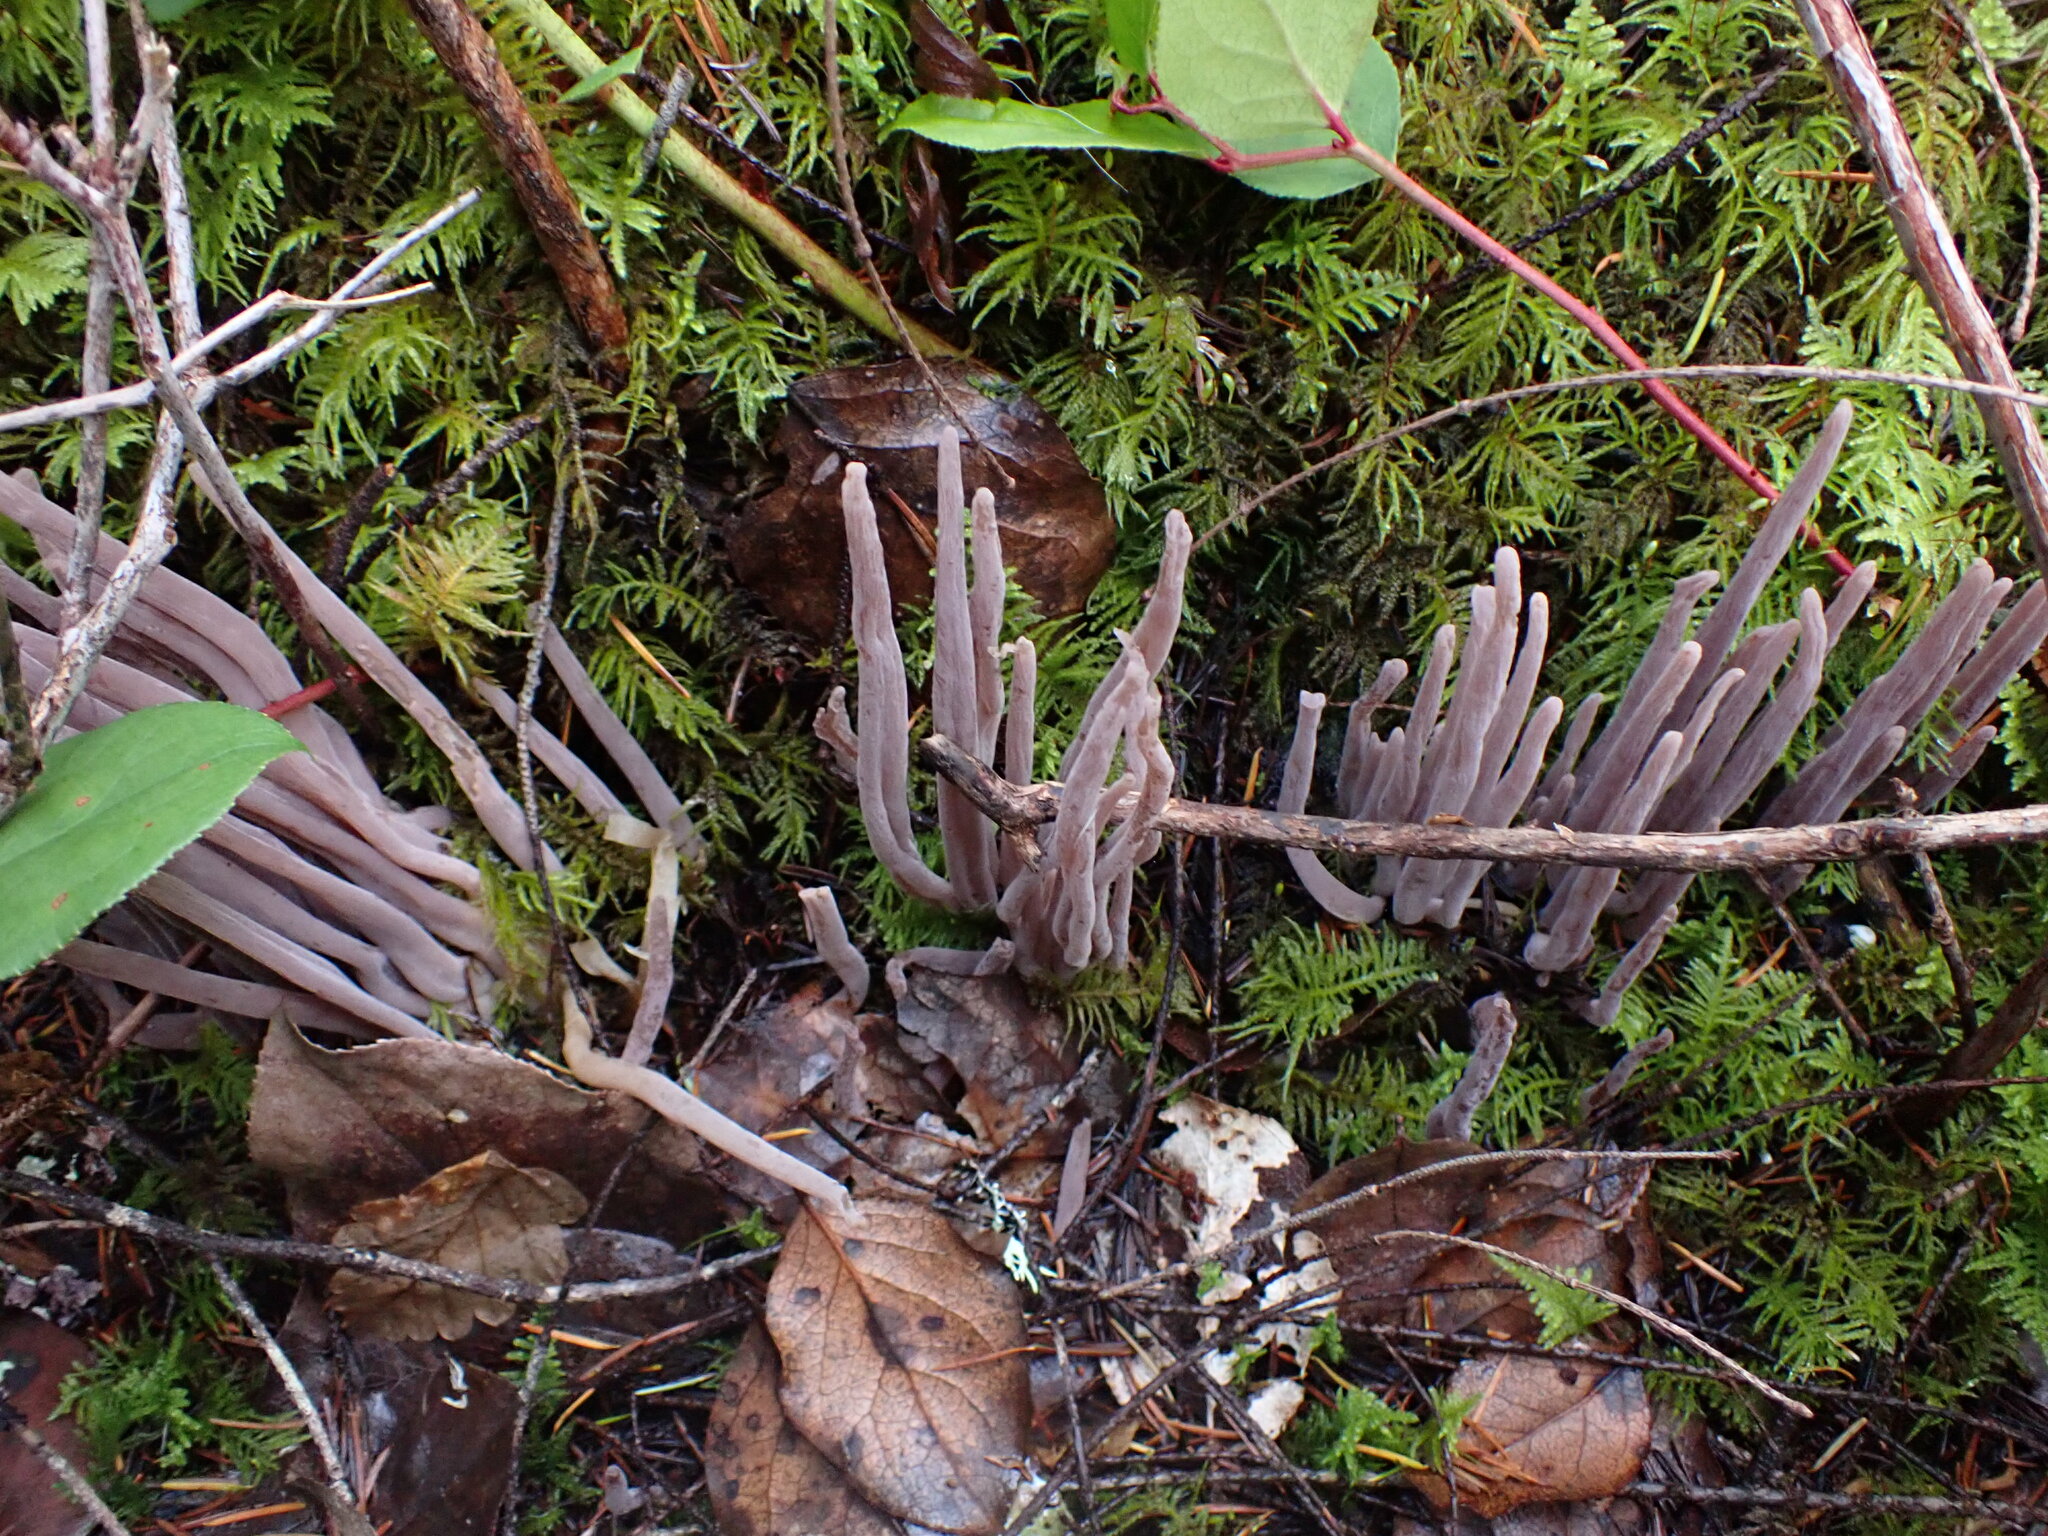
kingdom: Fungi
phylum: Basidiomycota
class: Agaricomycetes
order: Hymenochaetales
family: Rickenellaceae
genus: Alloclavaria
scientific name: Alloclavaria purpurea
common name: Purple spindles
